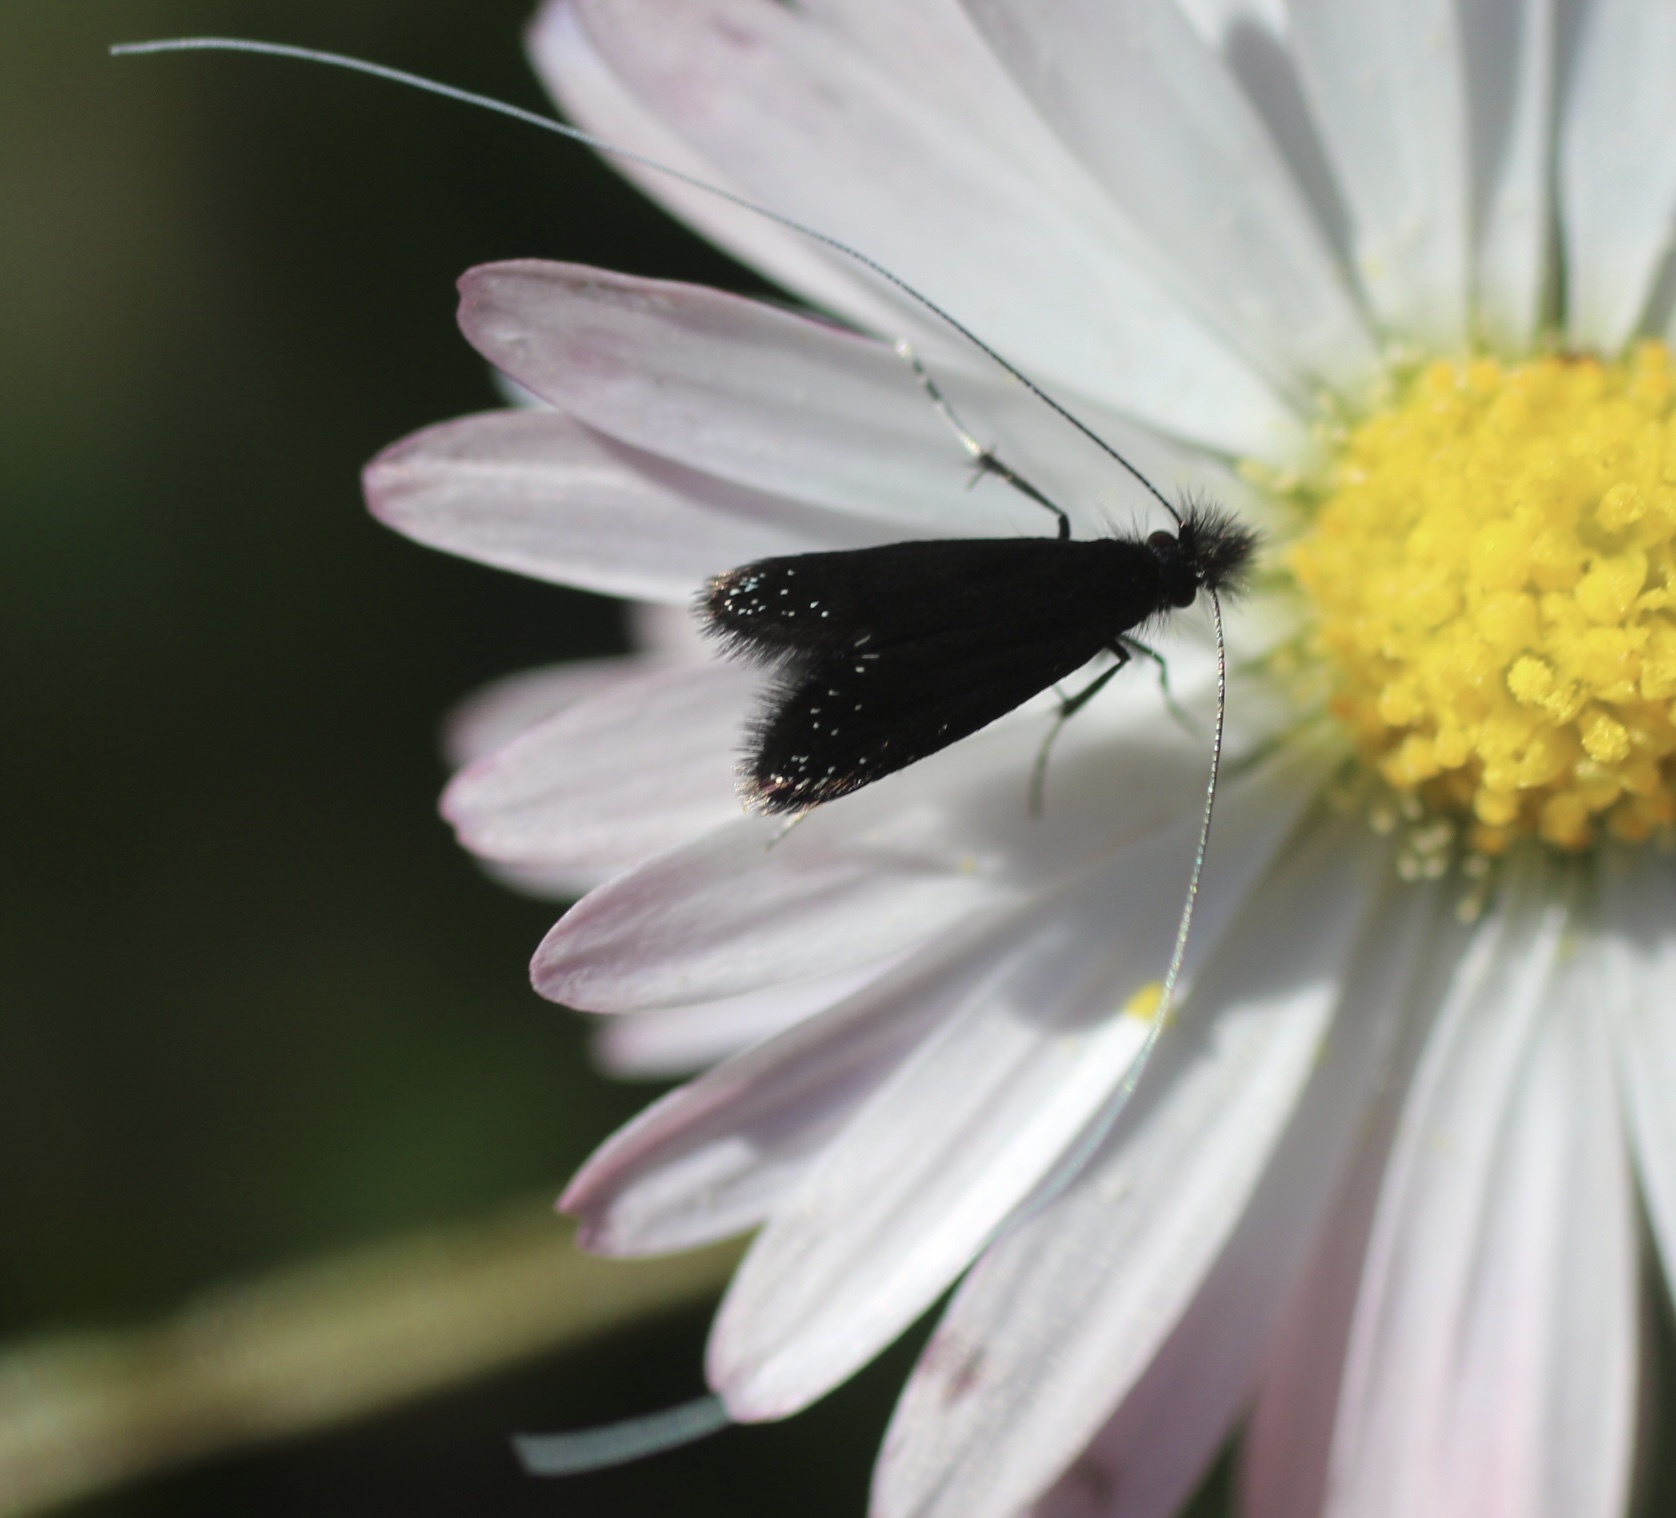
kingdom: Animalia
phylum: Arthropoda
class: Insecta
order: Lepidoptera
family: Adelidae
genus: Adela
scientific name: Adela septentrionella
